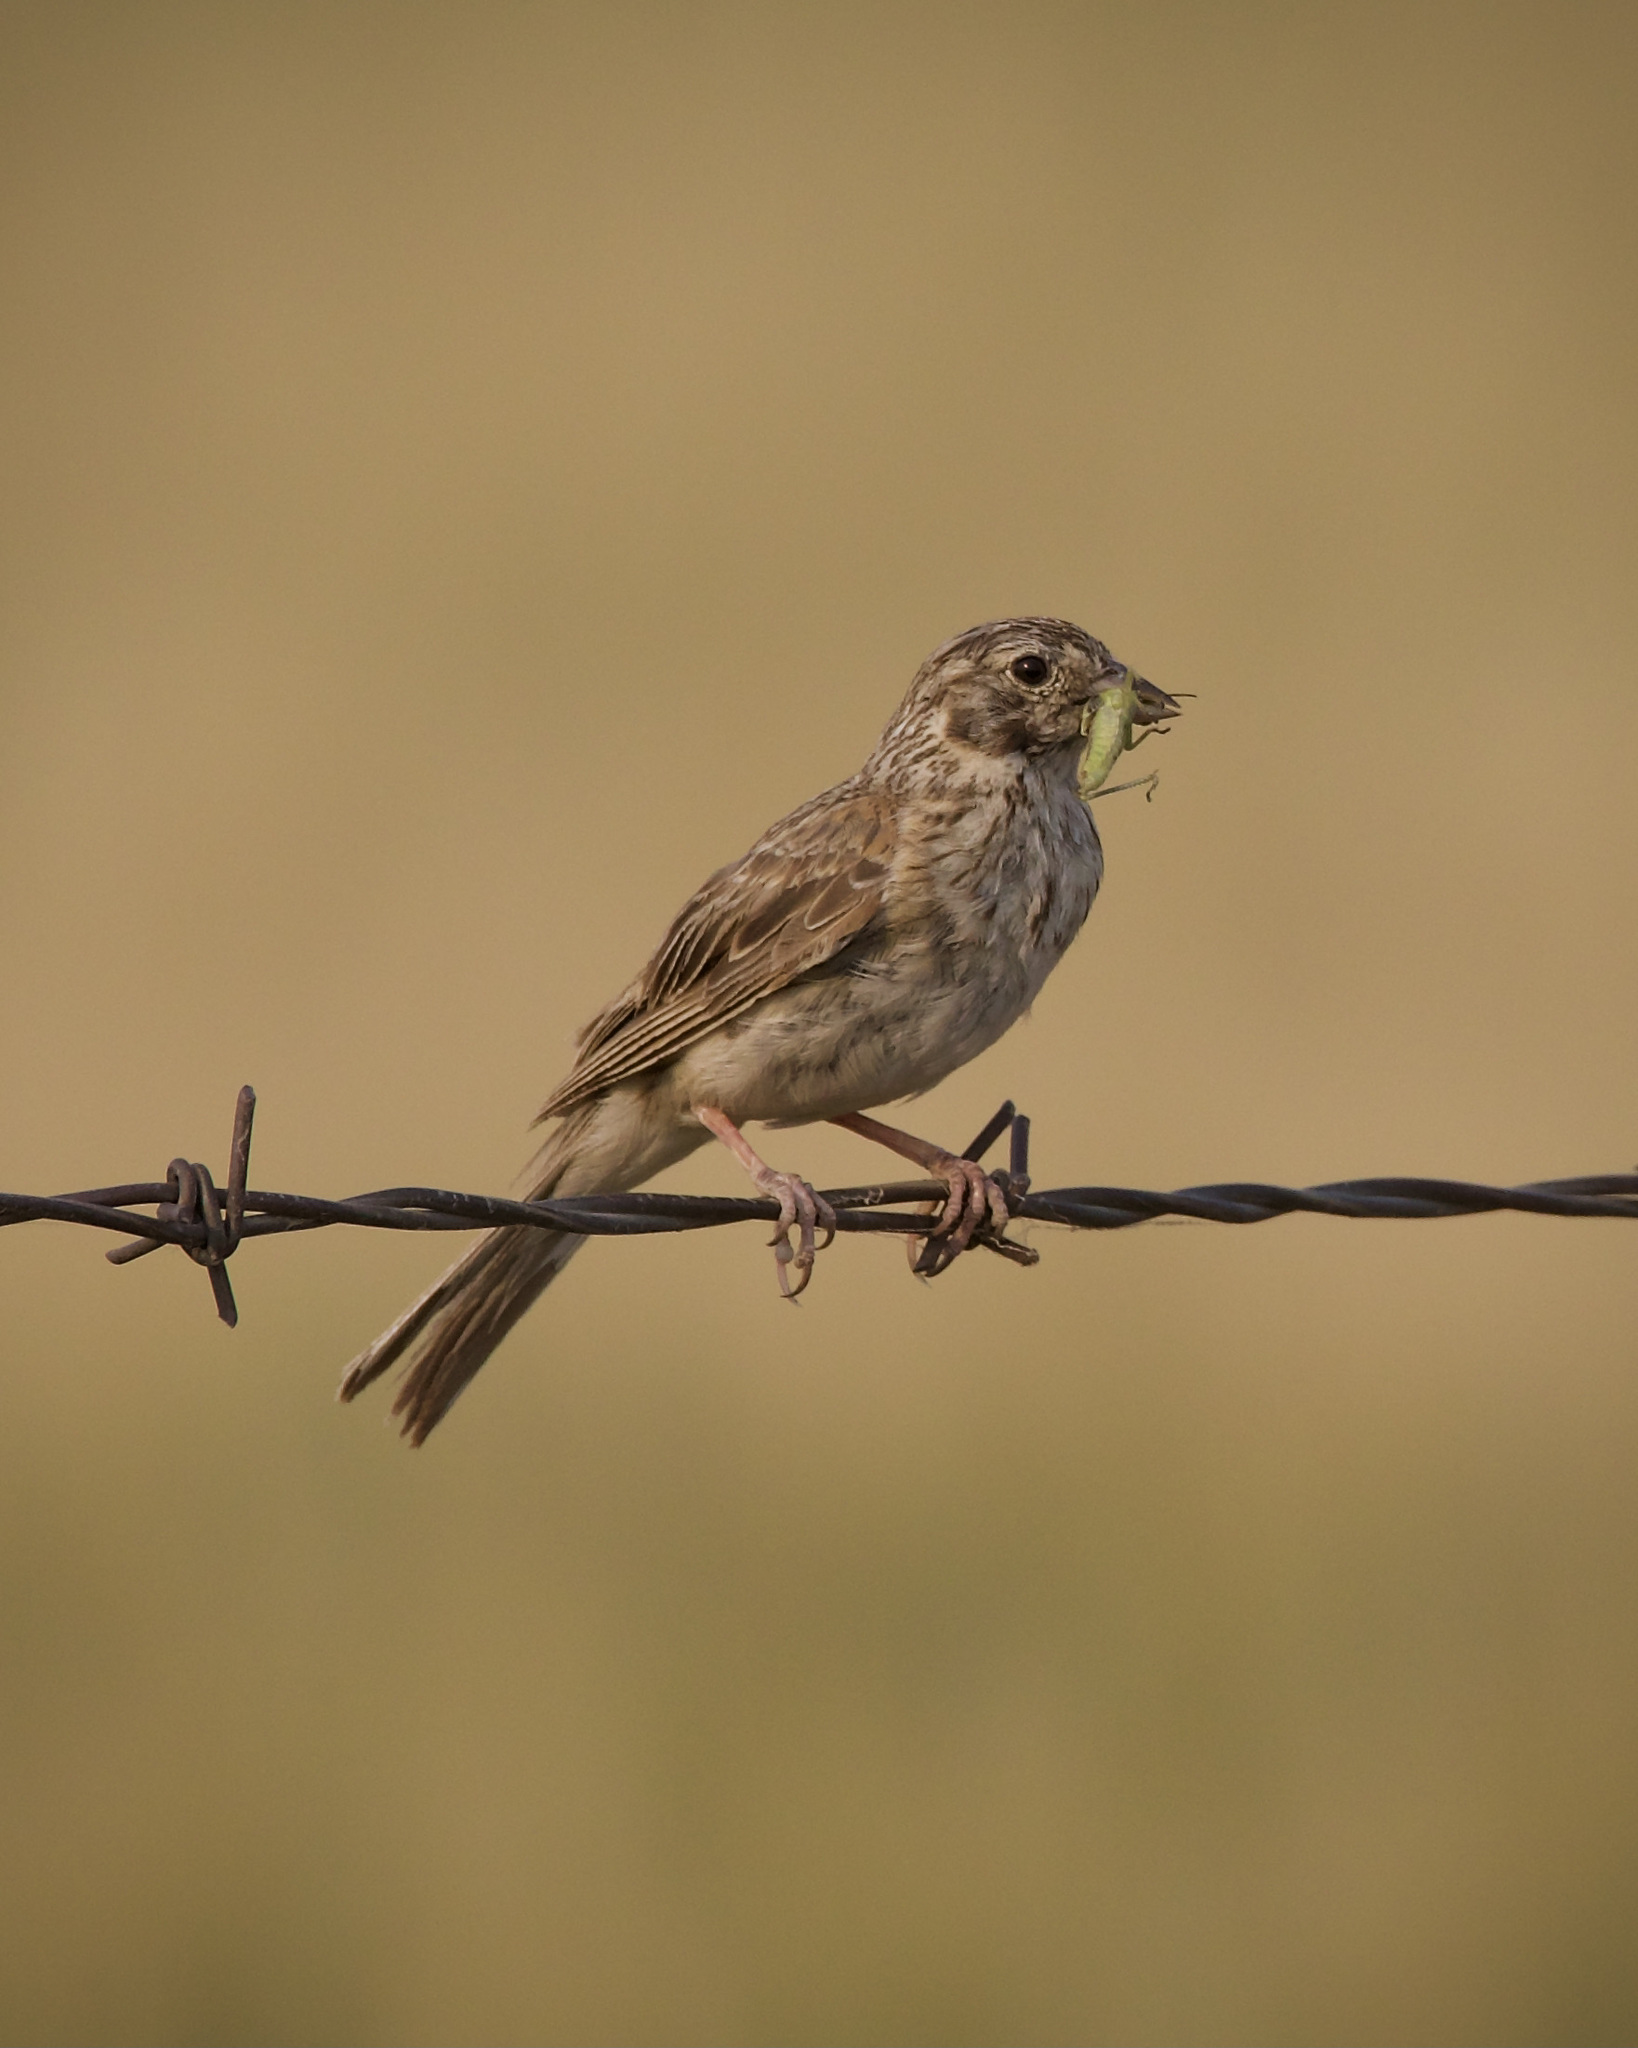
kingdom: Animalia
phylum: Chordata
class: Aves
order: Passeriformes
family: Passerellidae
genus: Pooecetes
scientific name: Pooecetes gramineus
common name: Vesper sparrow
